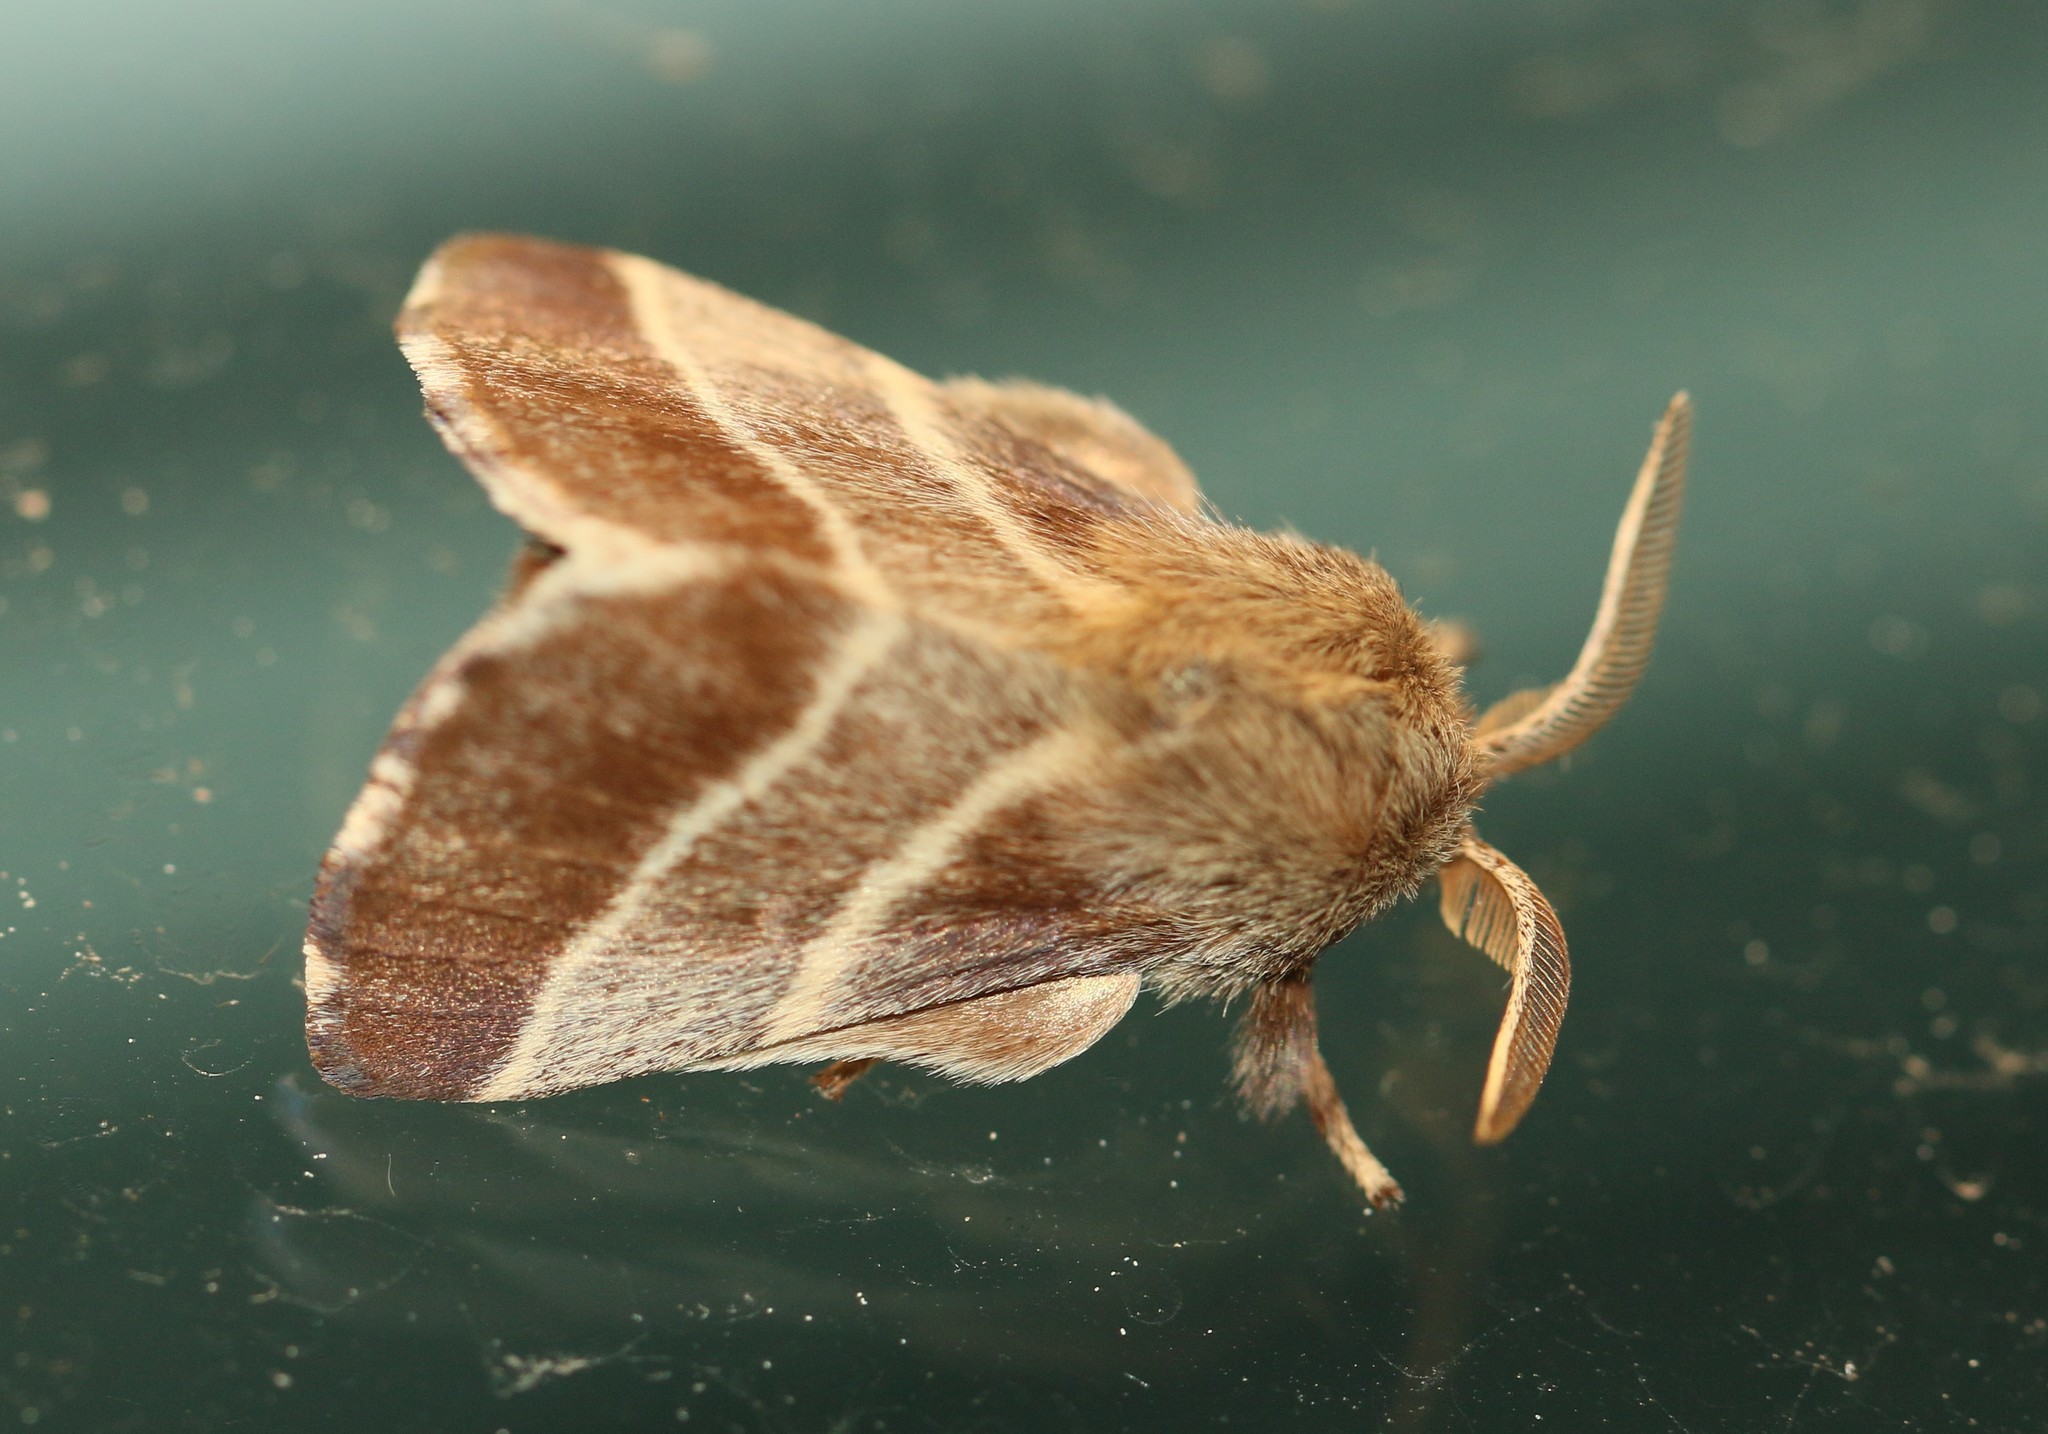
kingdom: Animalia
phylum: Arthropoda
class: Insecta
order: Lepidoptera
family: Lasiocampidae
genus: Malacosoma
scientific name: Malacosoma americana
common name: Eastern tent caterpillar moth
